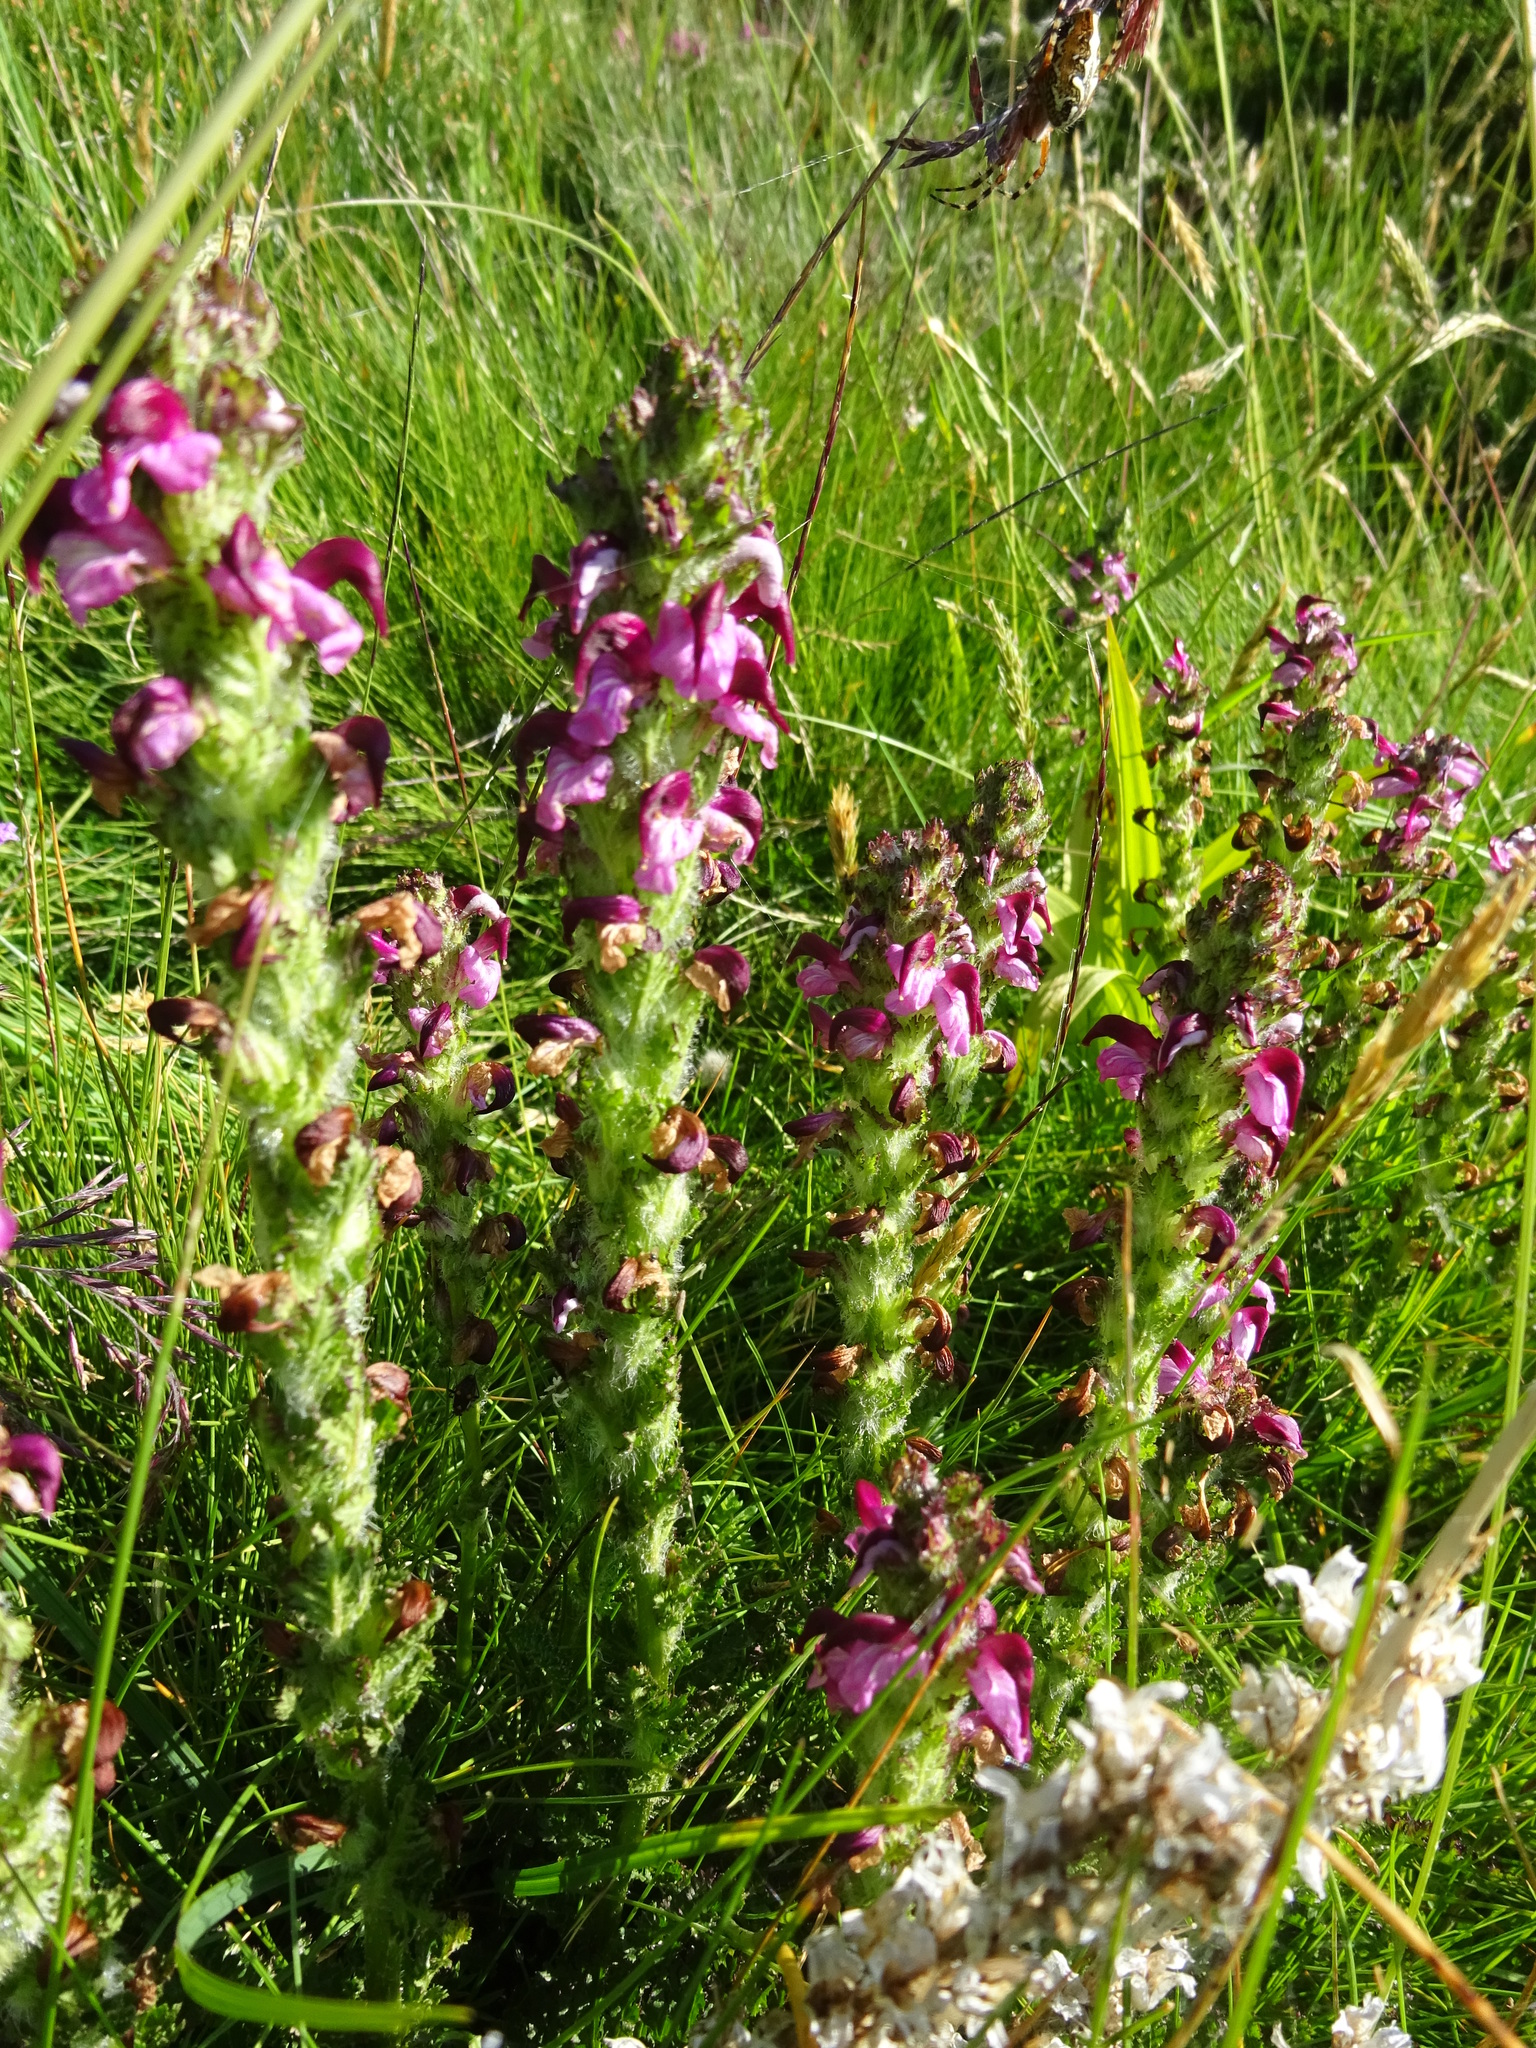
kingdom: Plantae
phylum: Tracheophyta
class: Magnoliopsida
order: Lamiales
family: Orobanchaceae
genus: Pedicularis
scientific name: Pedicularis mixta
